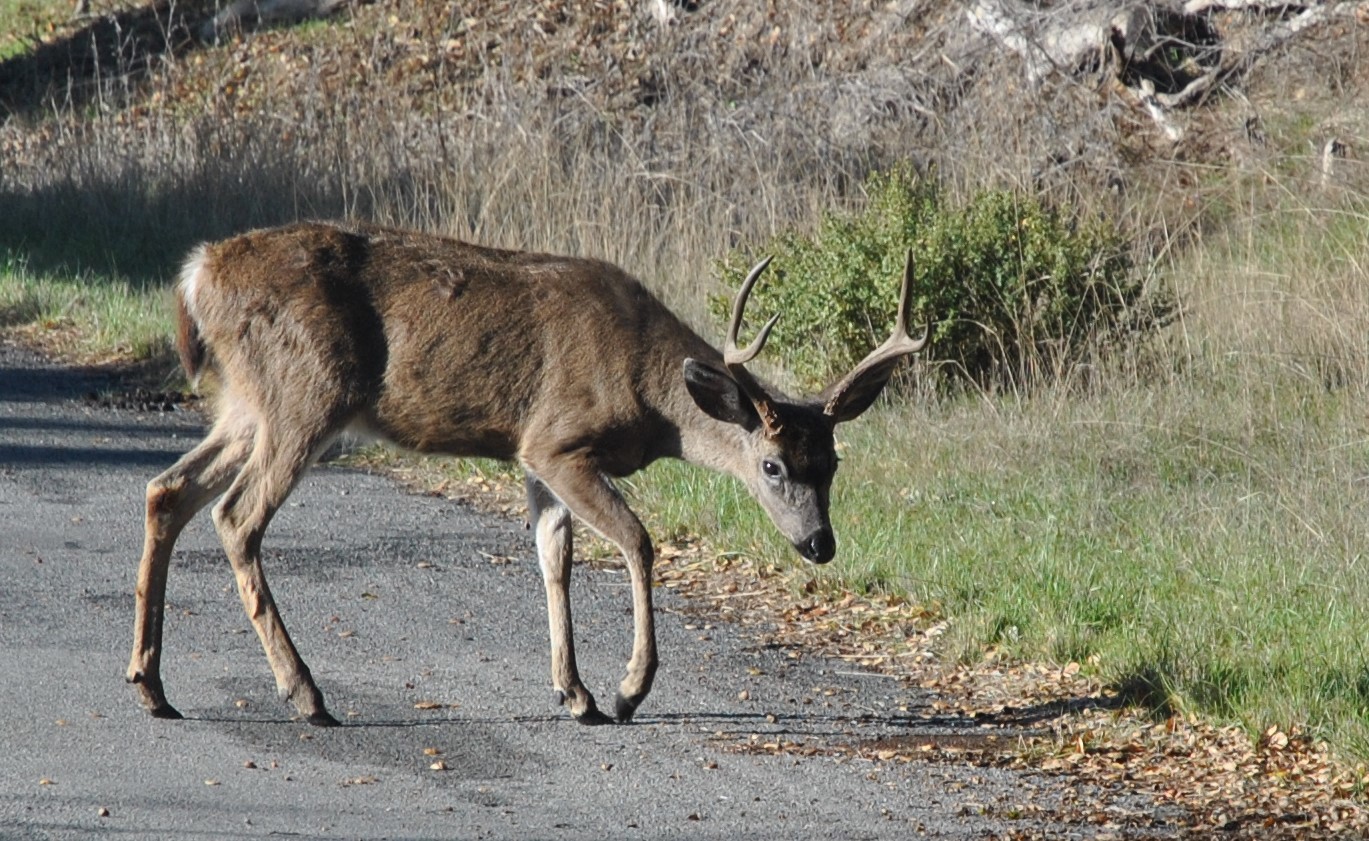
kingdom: Animalia
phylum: Chordata
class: Mammalia
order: Artiodactyla
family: Cervidae
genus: Odocoileus
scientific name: Odocoileus hemionus
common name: Mule deer
